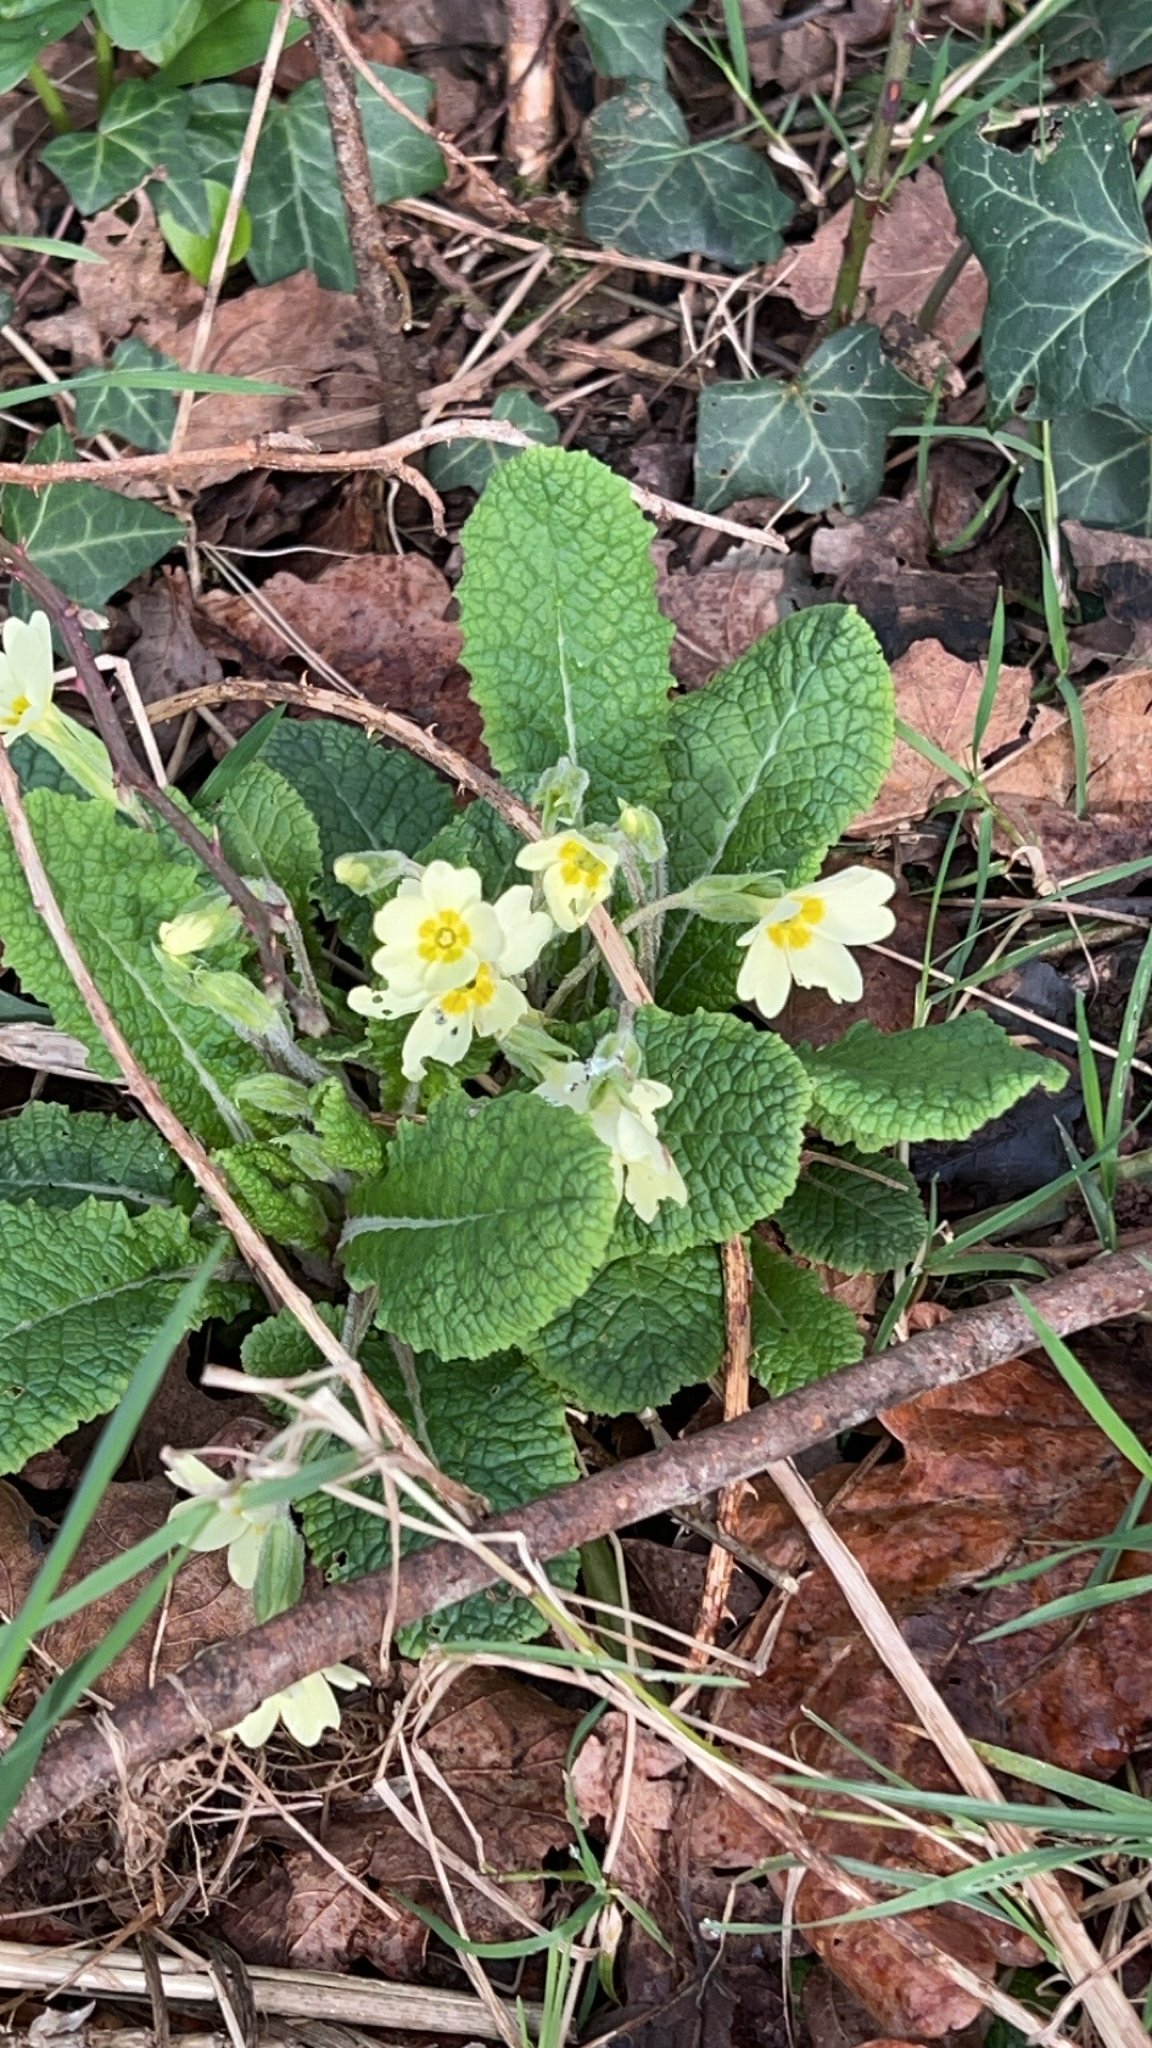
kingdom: Plantae
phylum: Tracheophyta
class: Magnoliopsida
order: Ericales
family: Primulaceae
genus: Primula
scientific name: Primula vulgaris
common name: Primrose
